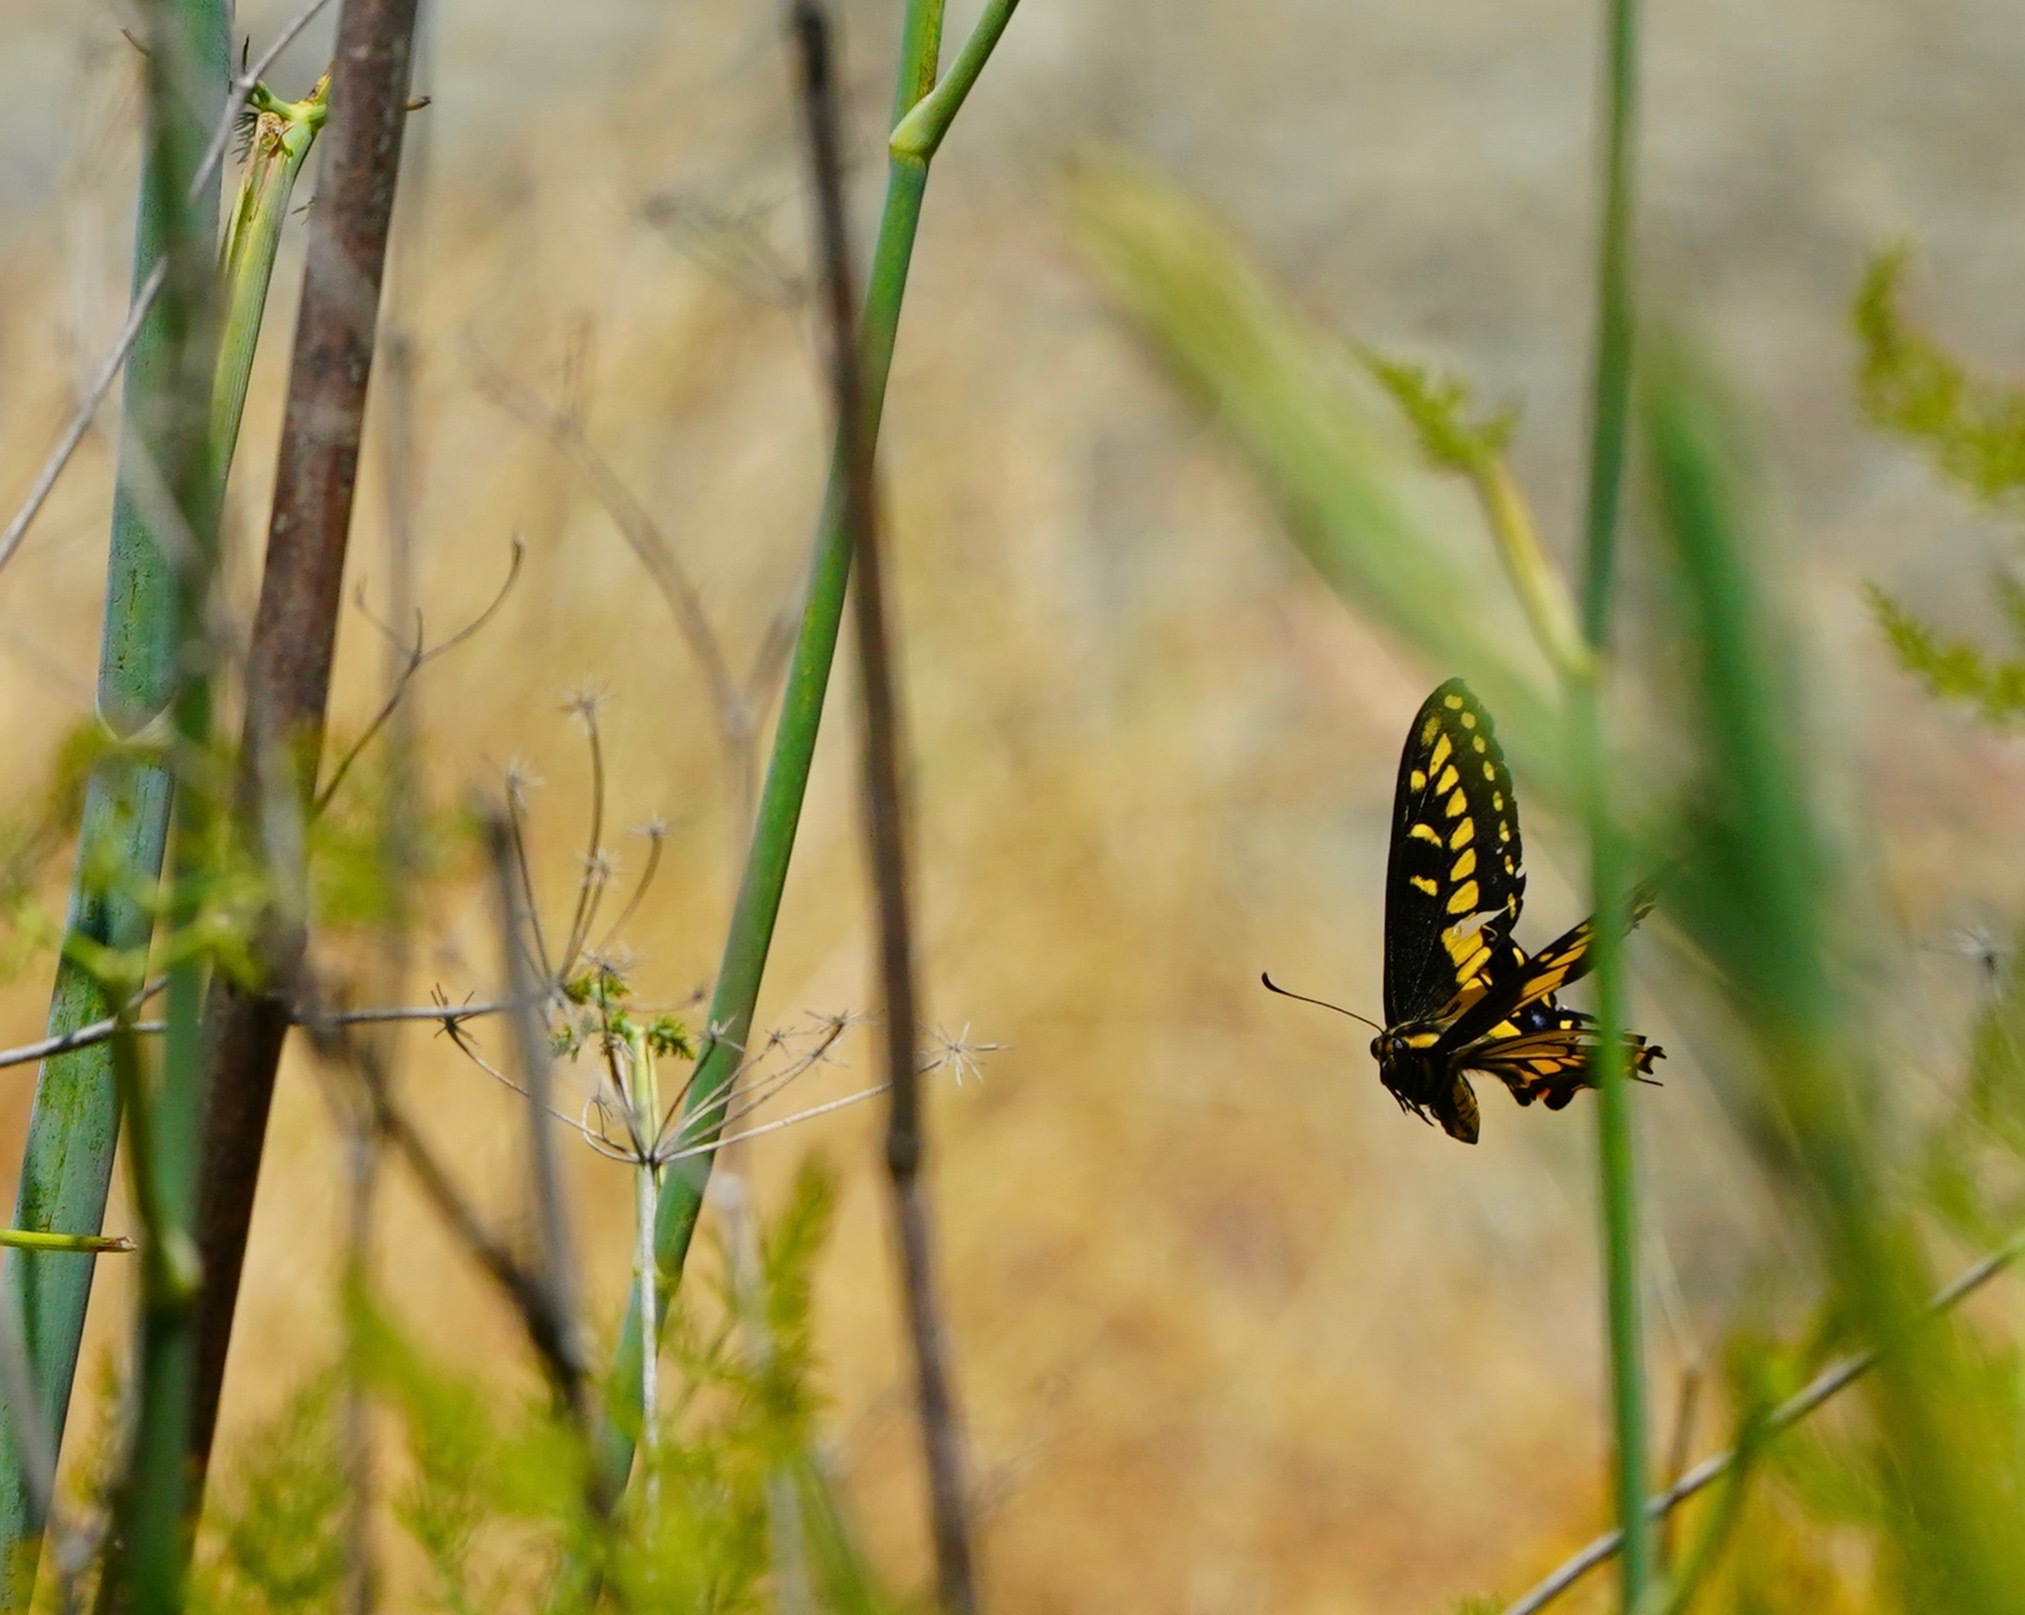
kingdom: Animalia
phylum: Arthropoda
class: Insecta
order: Lepidoptera
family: Papilionidae
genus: Papilio
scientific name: Papilio zelicaon
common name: Anise swallowtail
